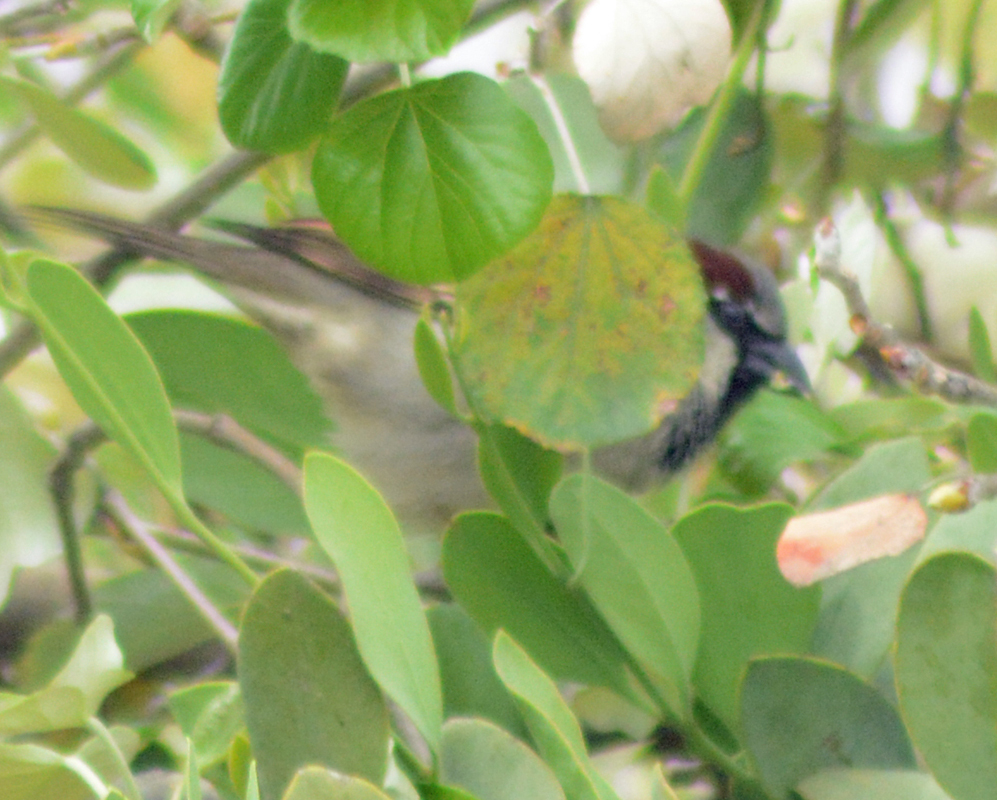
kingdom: Animalia
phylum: Chordata
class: Aves
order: Passeriformes
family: Passeridae
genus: Passer
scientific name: Passer domesticus
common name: House sparrow
